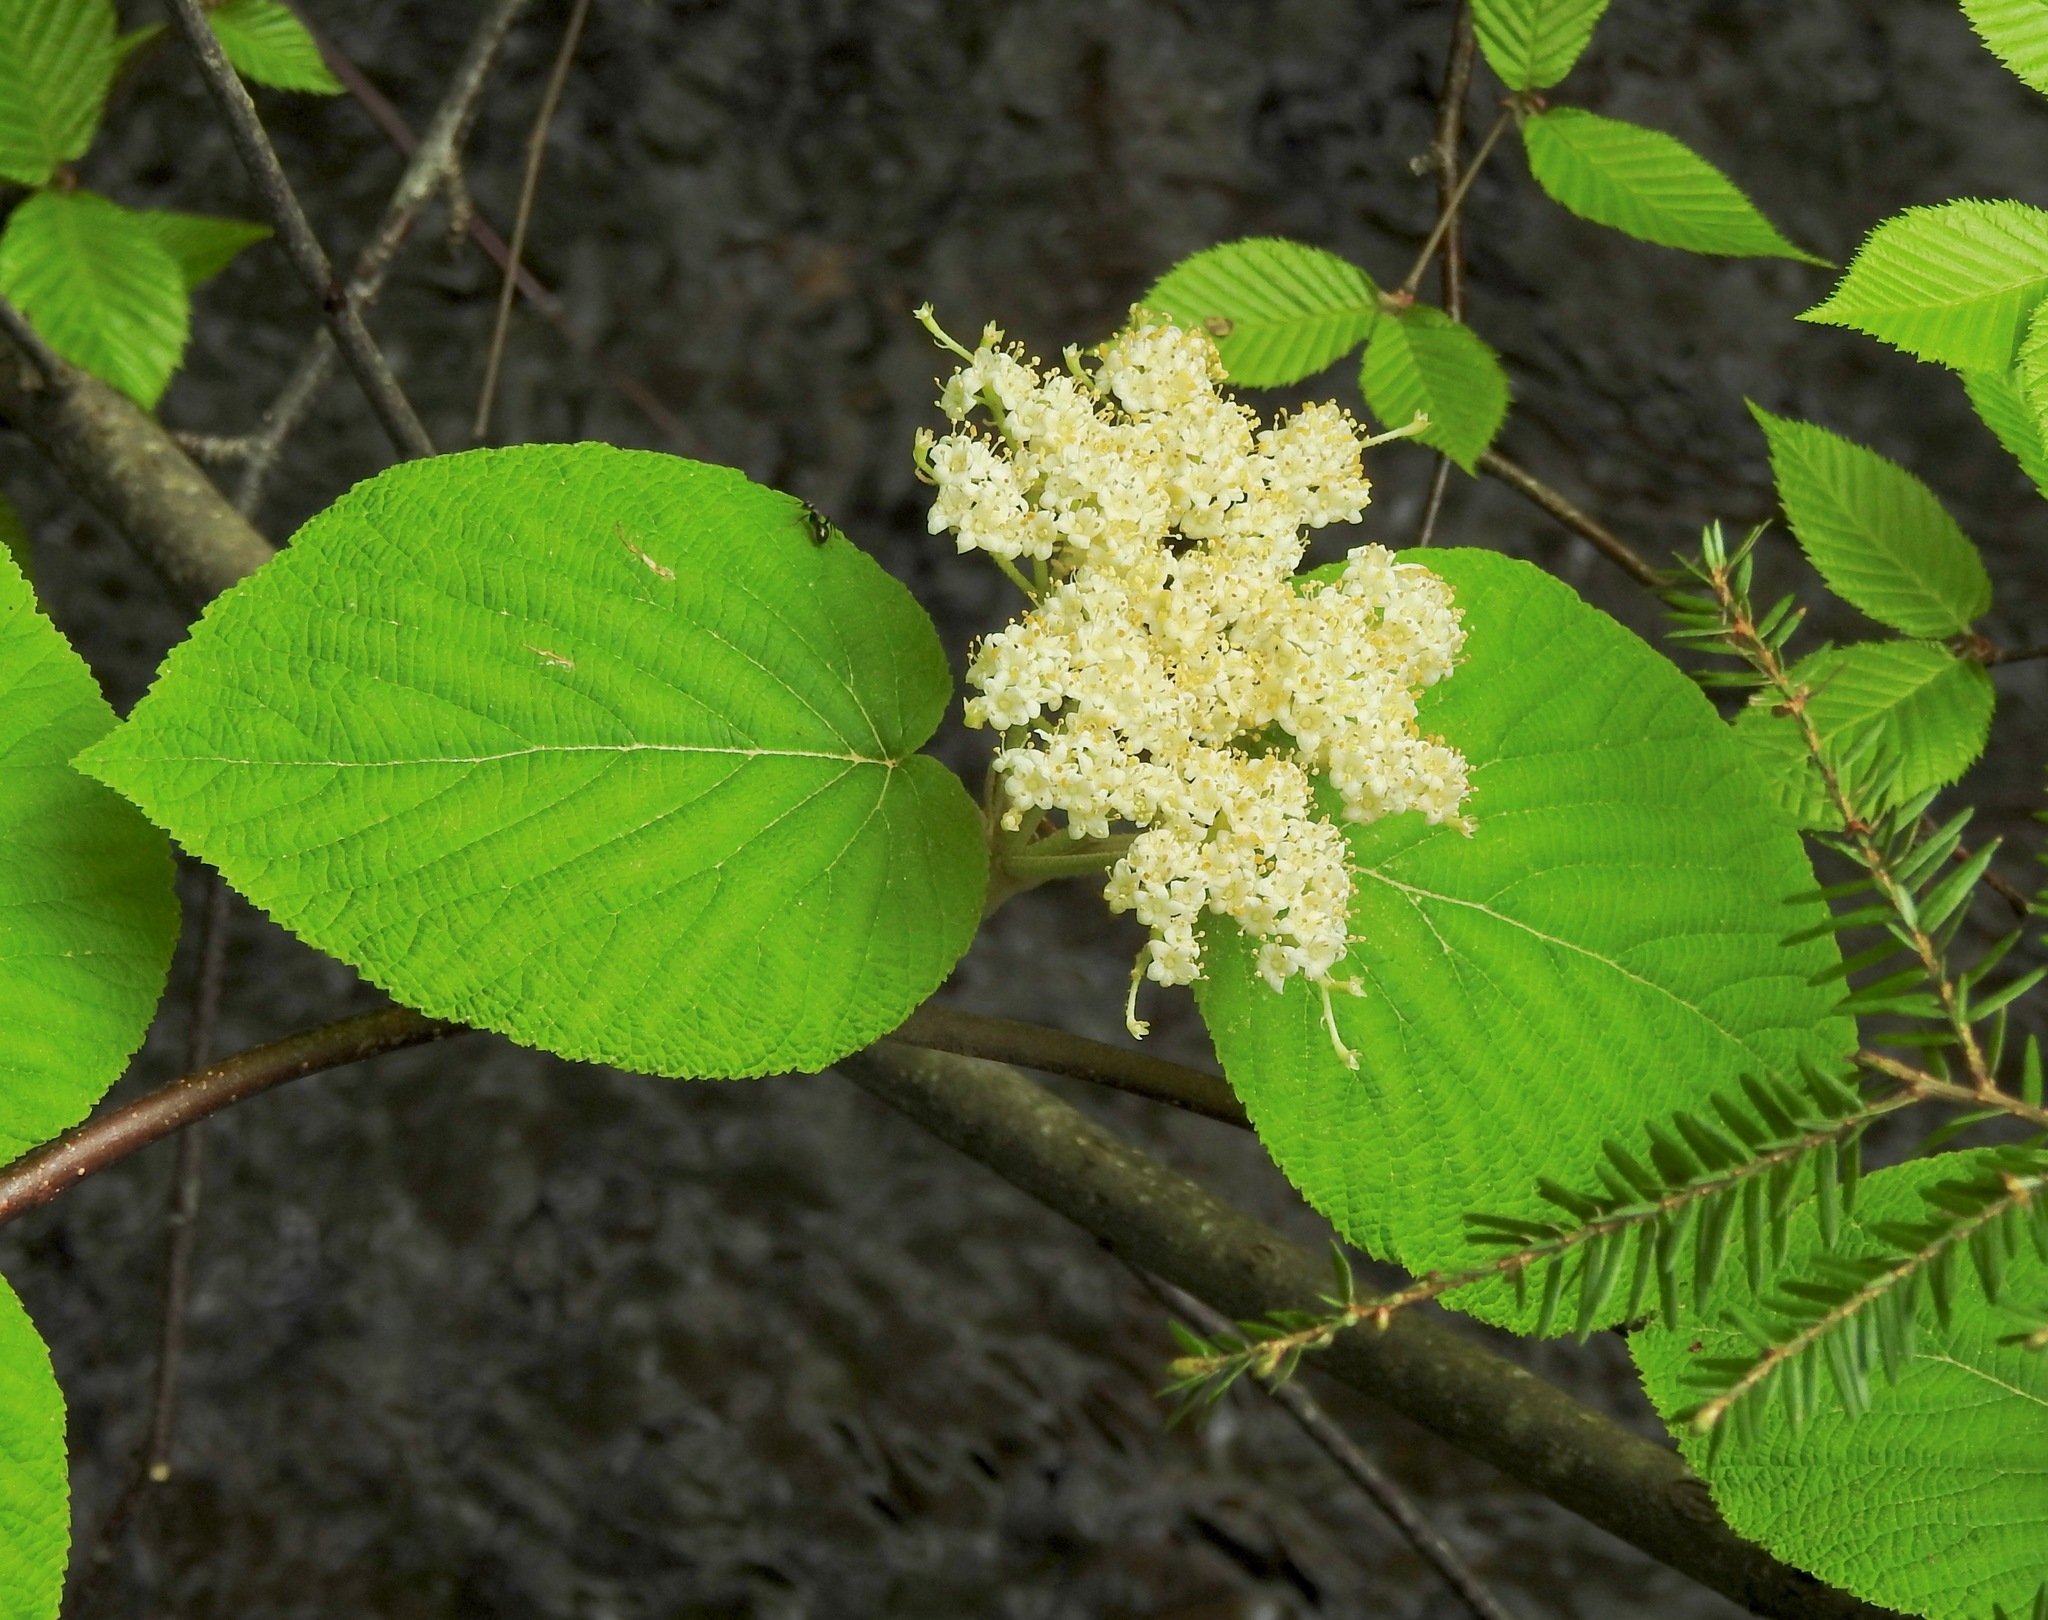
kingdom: Plantae
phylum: Tracheophyta
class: Magnoliopsida
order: Dipsacales
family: Viburnaceae
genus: Viburnum
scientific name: Viburnum lantanoides
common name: Hobblebush
